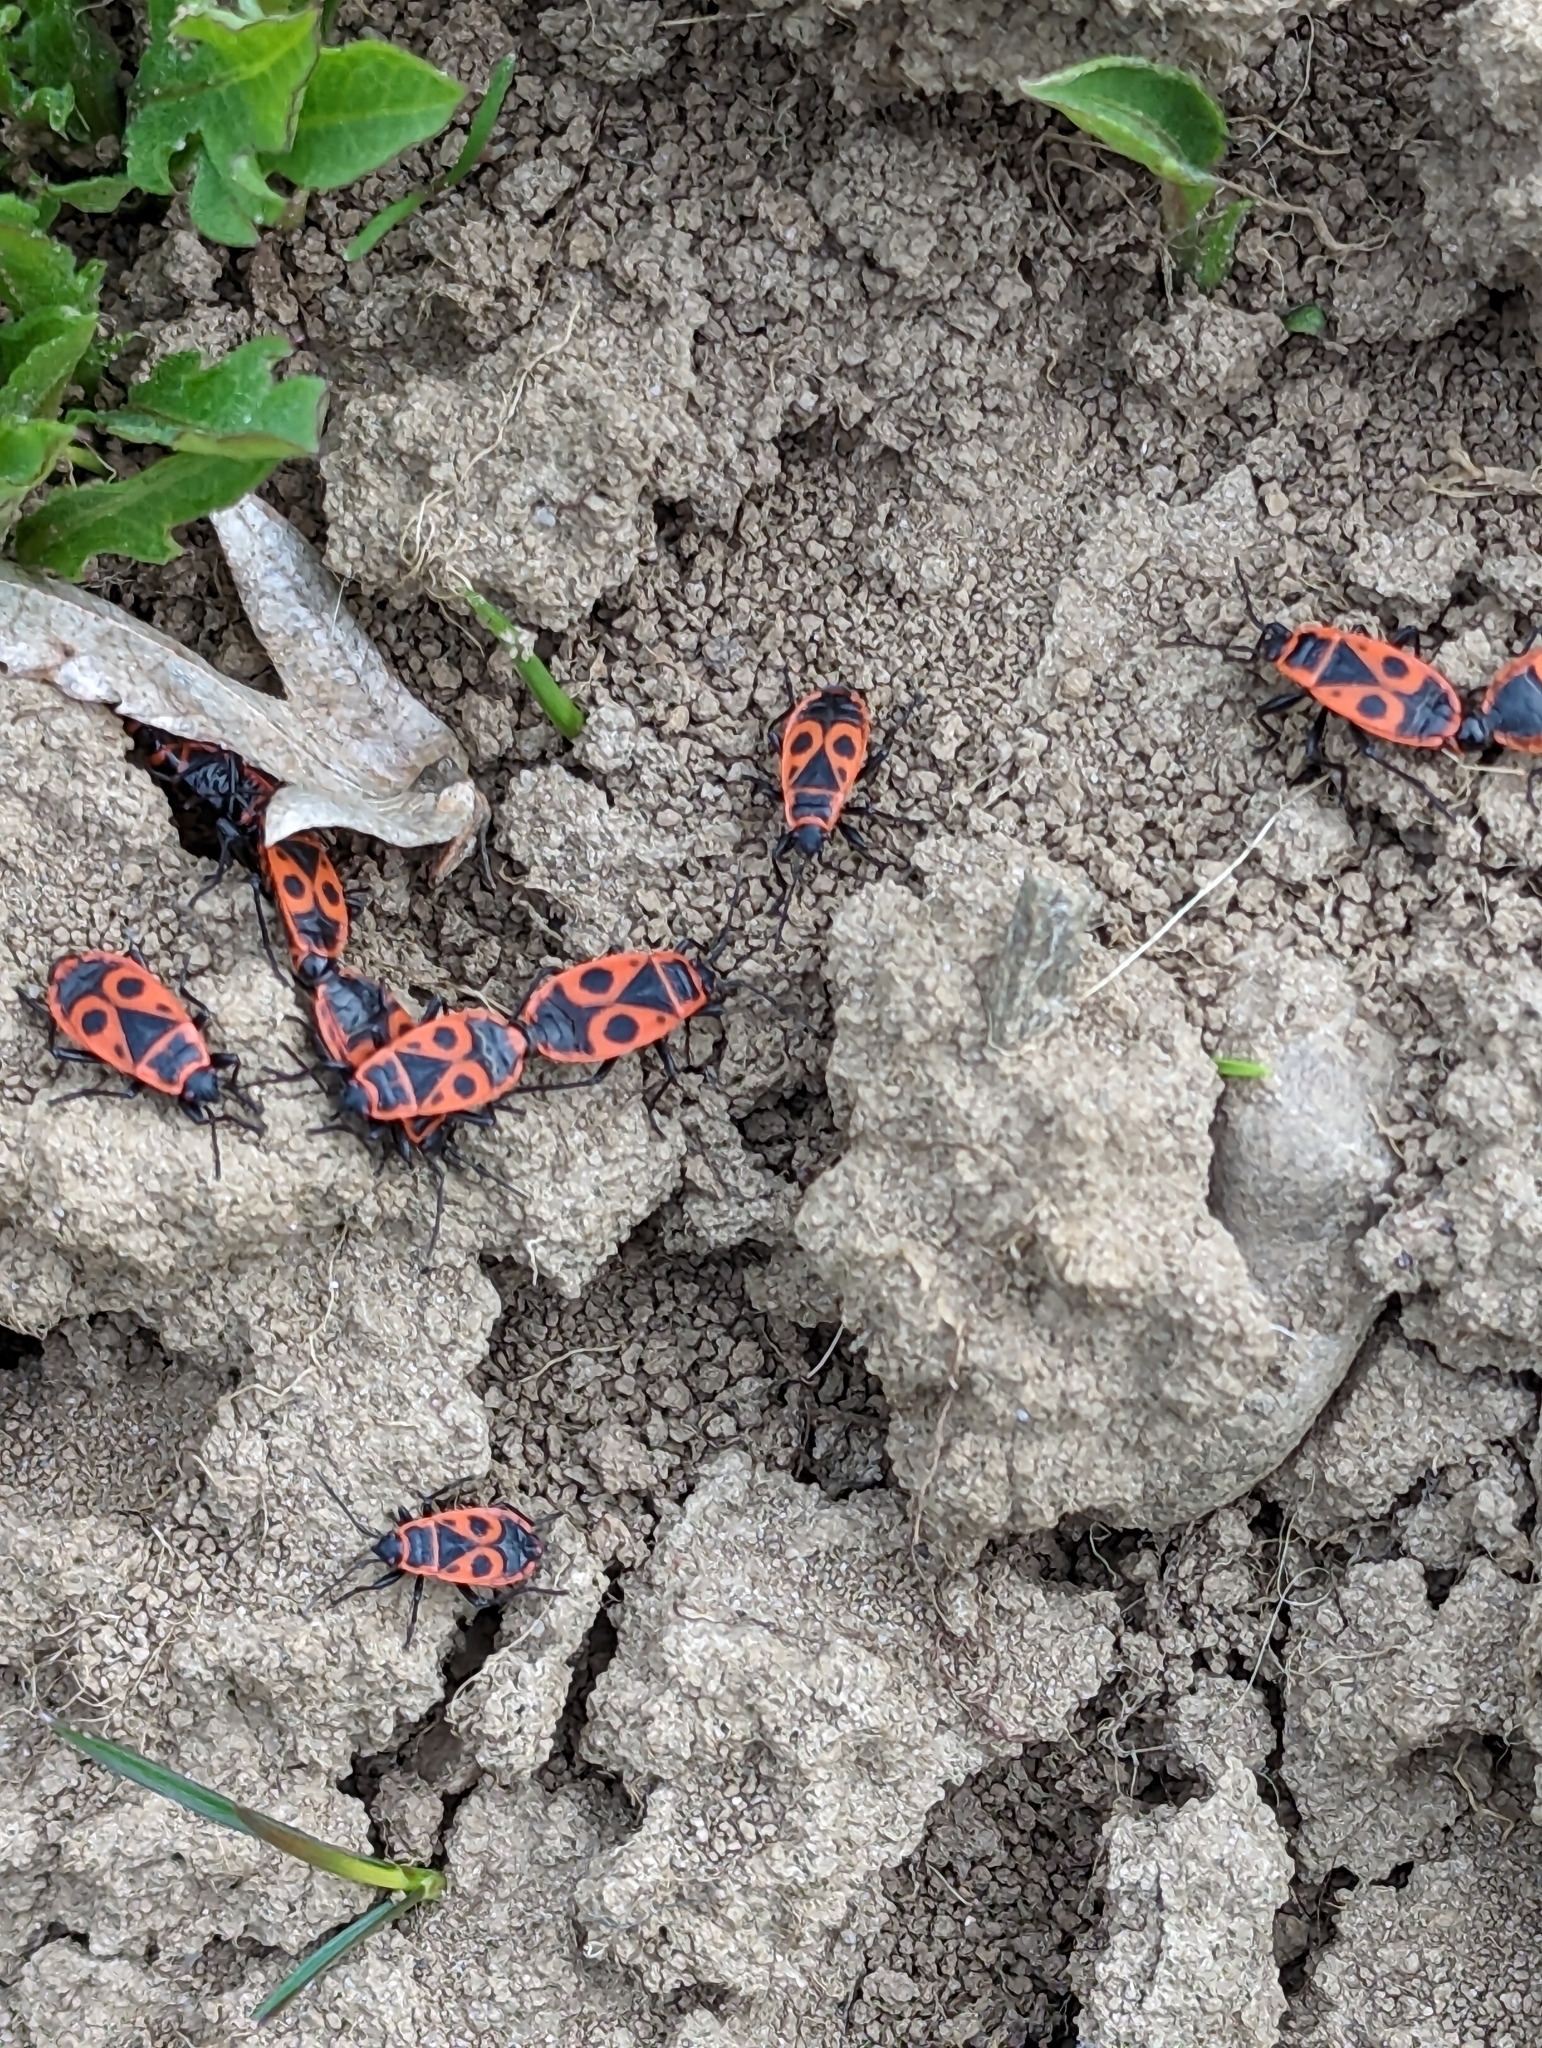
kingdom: Animalia
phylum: Arthropoda
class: Insecta
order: Hemiptera
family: Pyrrhocoridae
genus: Pyrrhocoris
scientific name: Pyrrhocoris apterus
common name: Firebug
